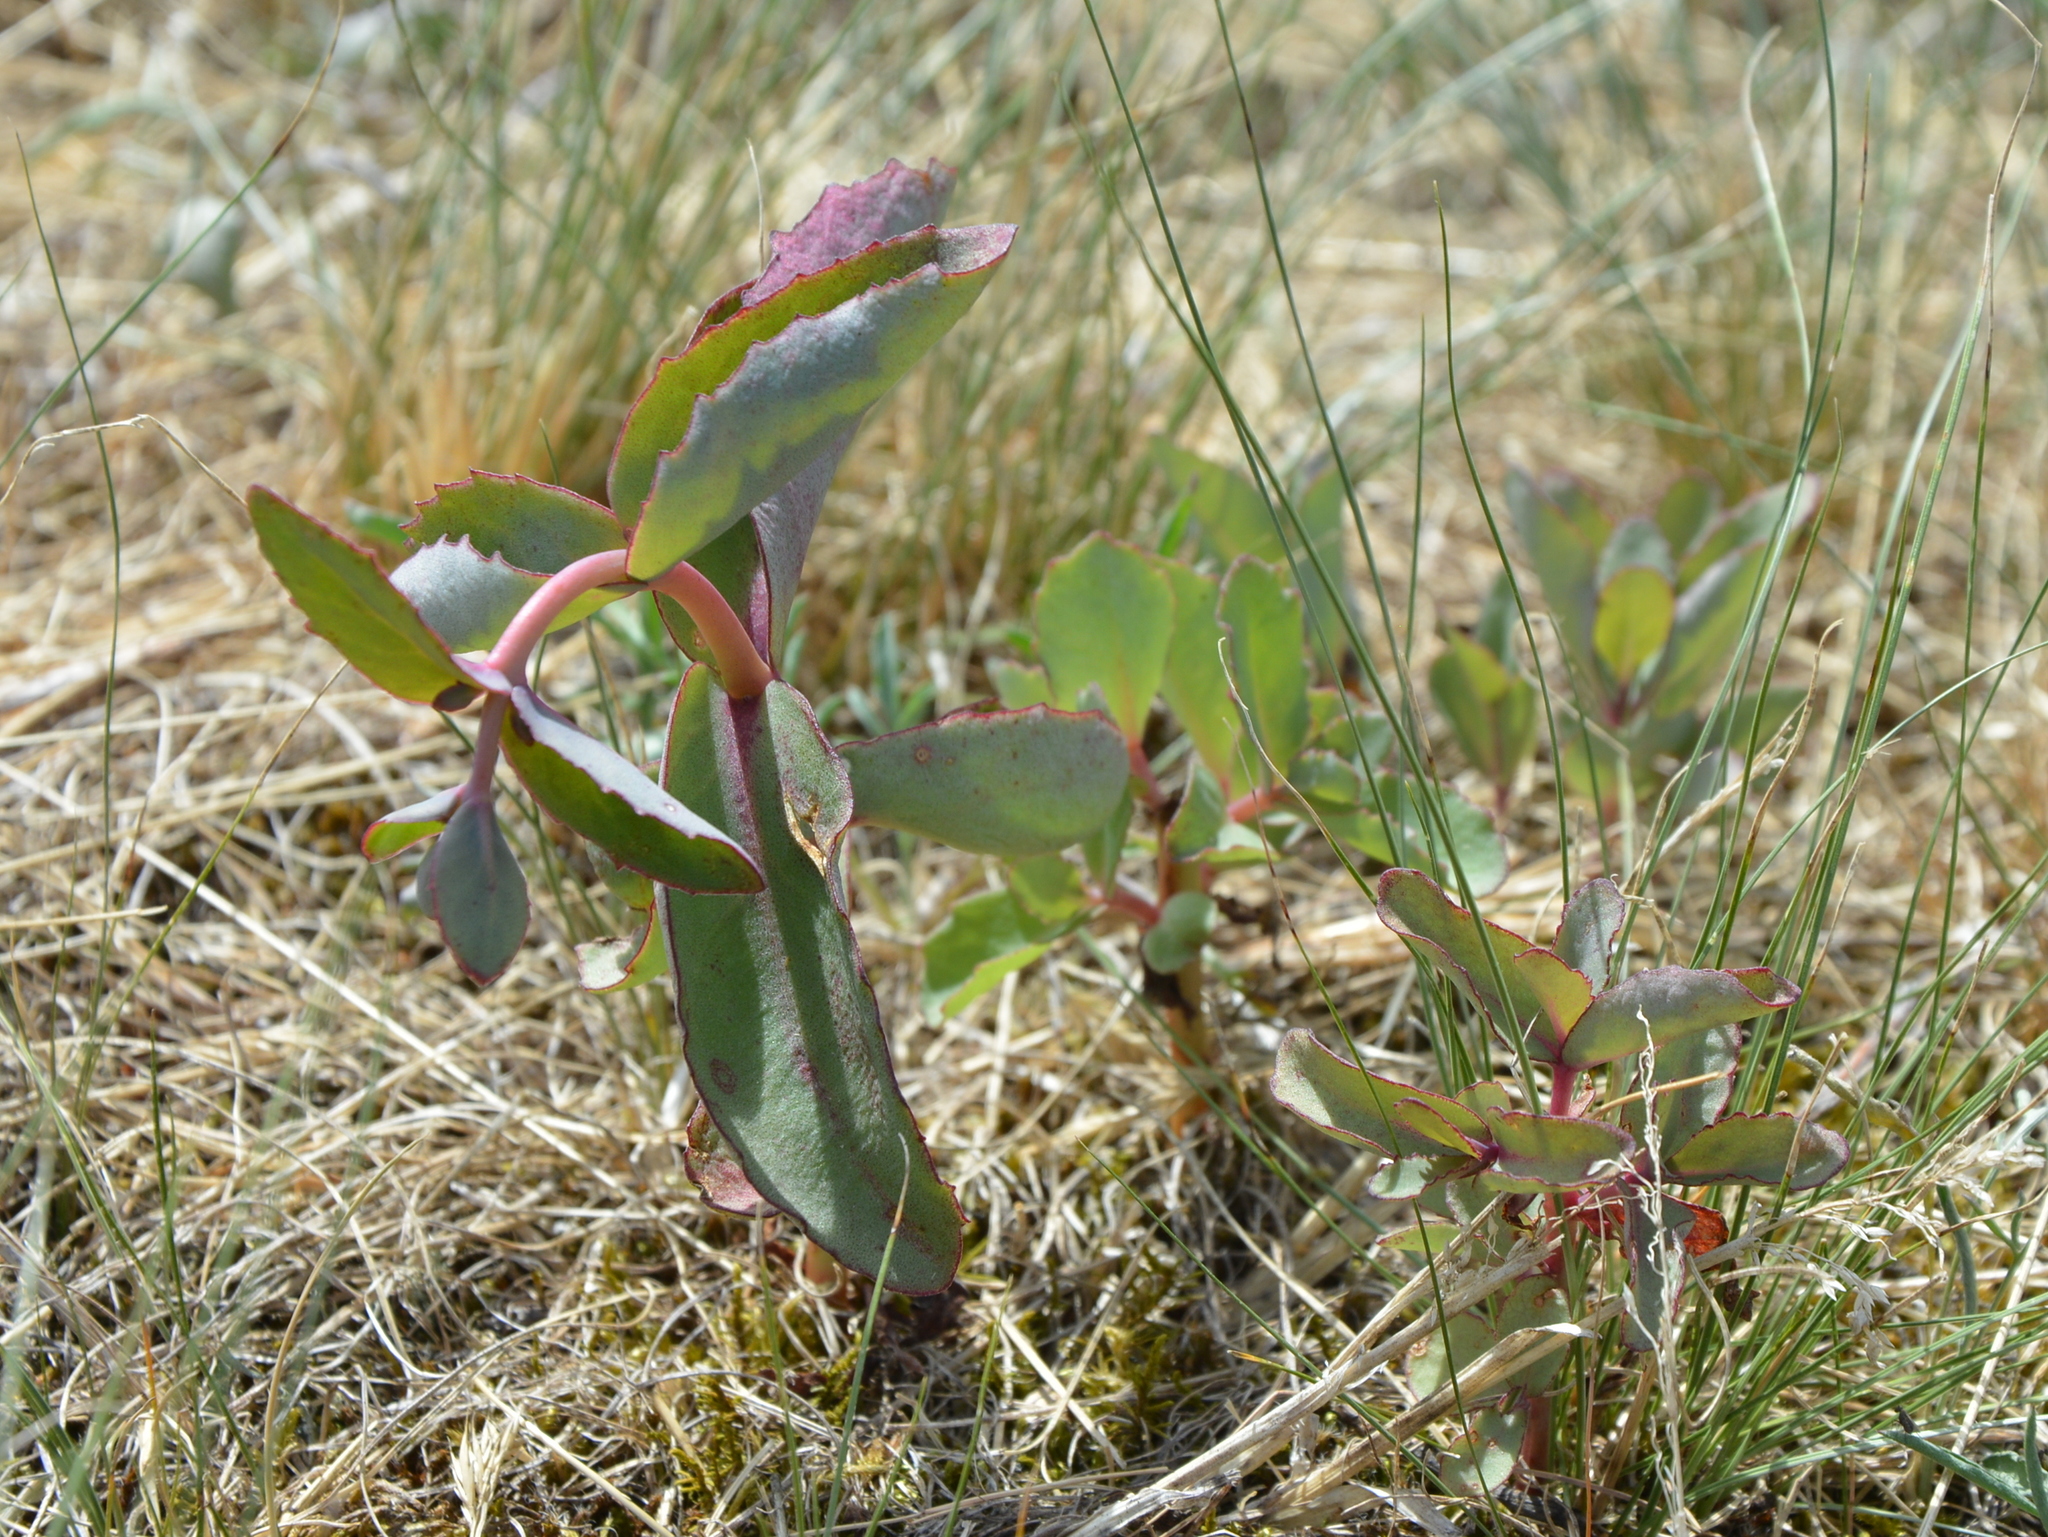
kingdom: Plantae
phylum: Tracheophyta
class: Magnoliopsida
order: Saxifragales
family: Crassulaceae
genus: Hylotelephium
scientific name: Hylotelephium maximum
